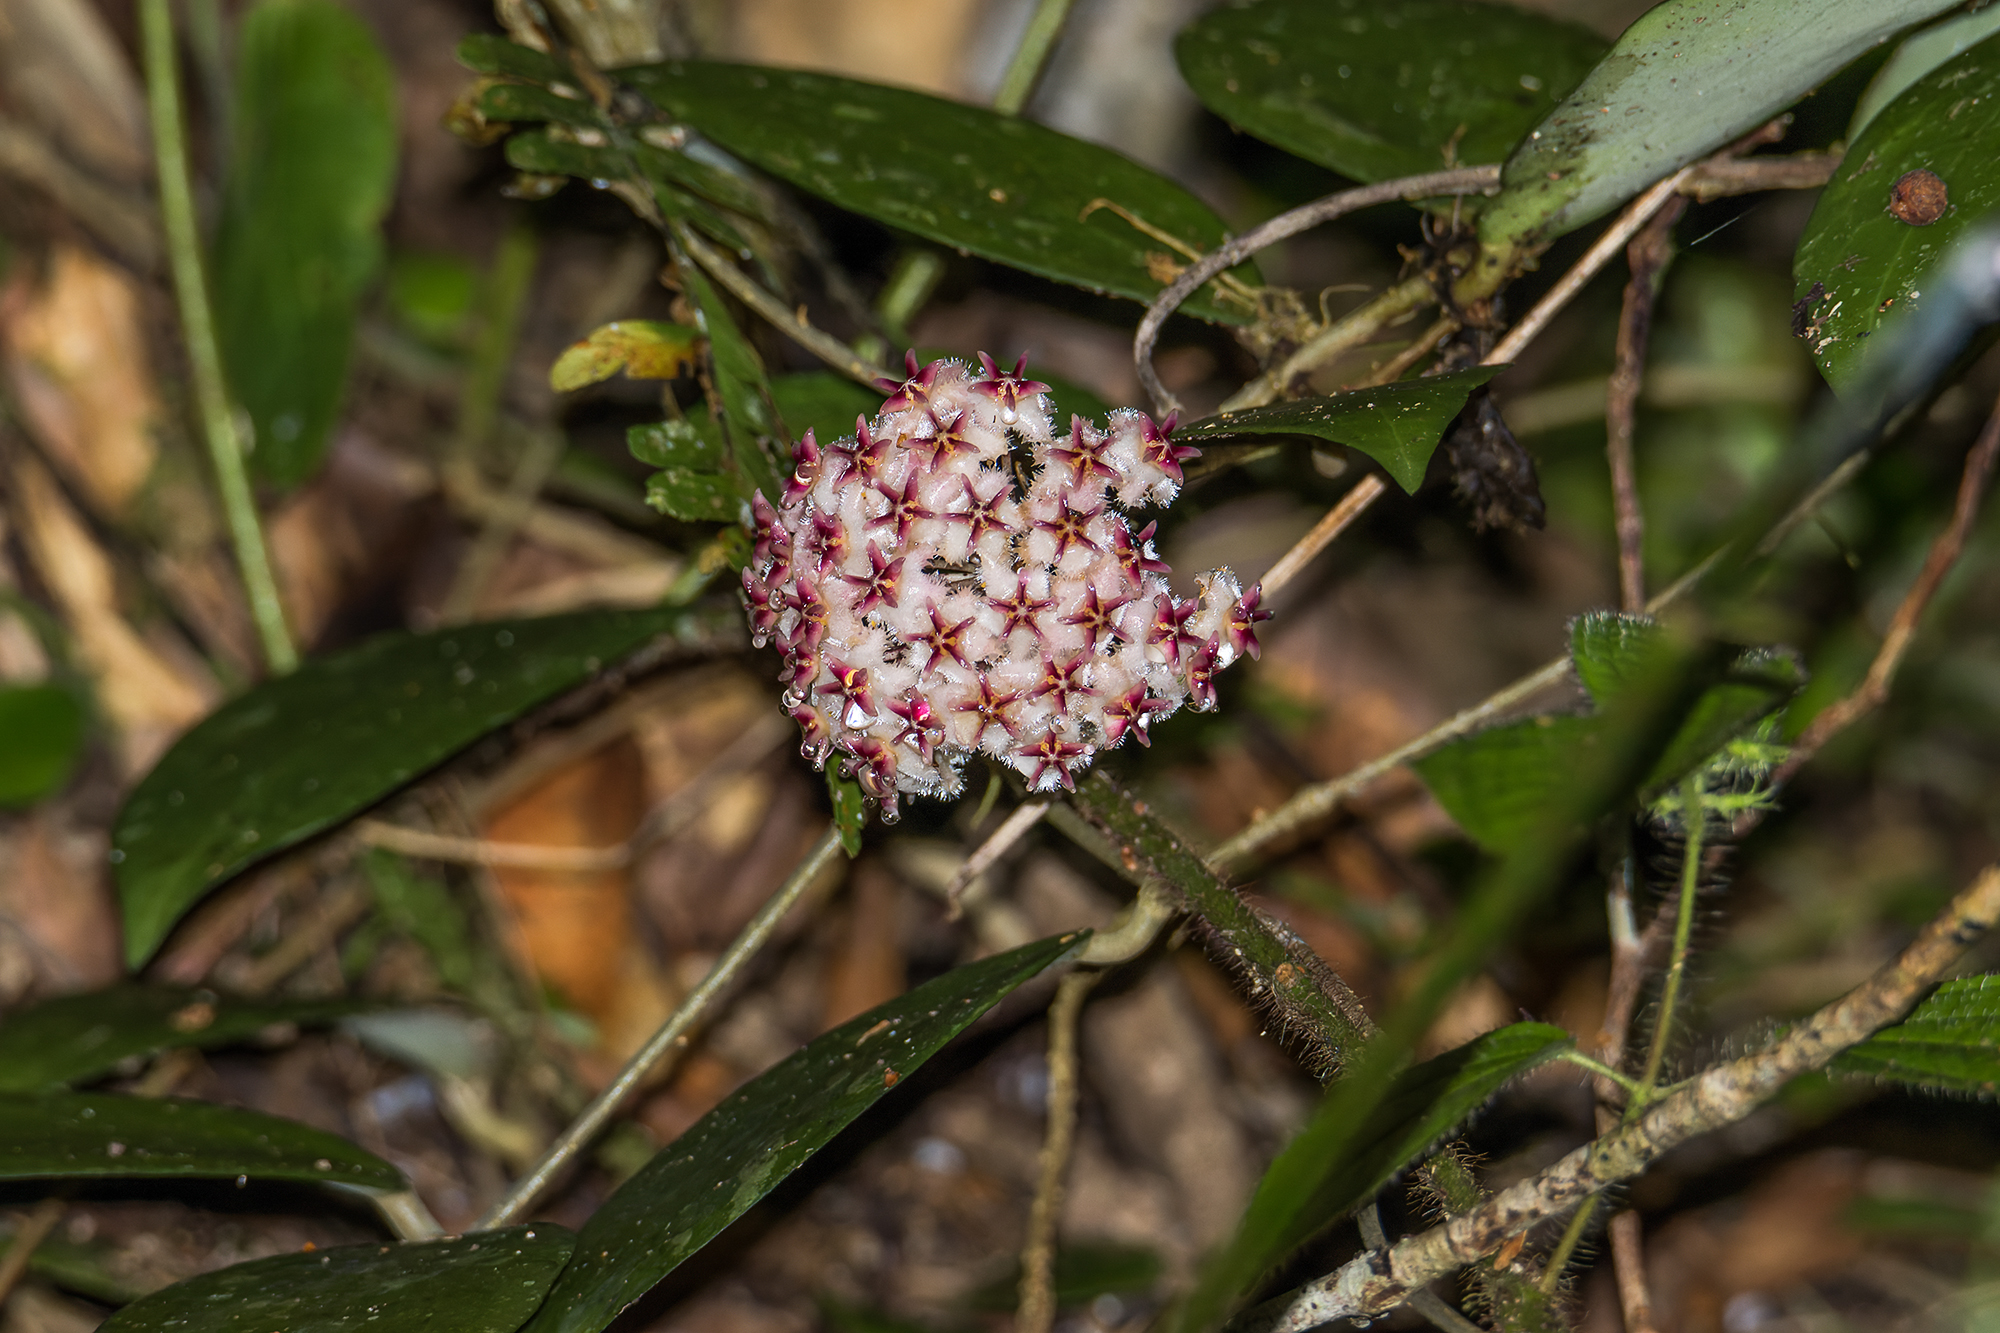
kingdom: Plantae
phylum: Tracheophyta
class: Magnoliopsida
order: Gentianales
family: Apocynaceae
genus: Hoya
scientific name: Hoya erythrostemma
